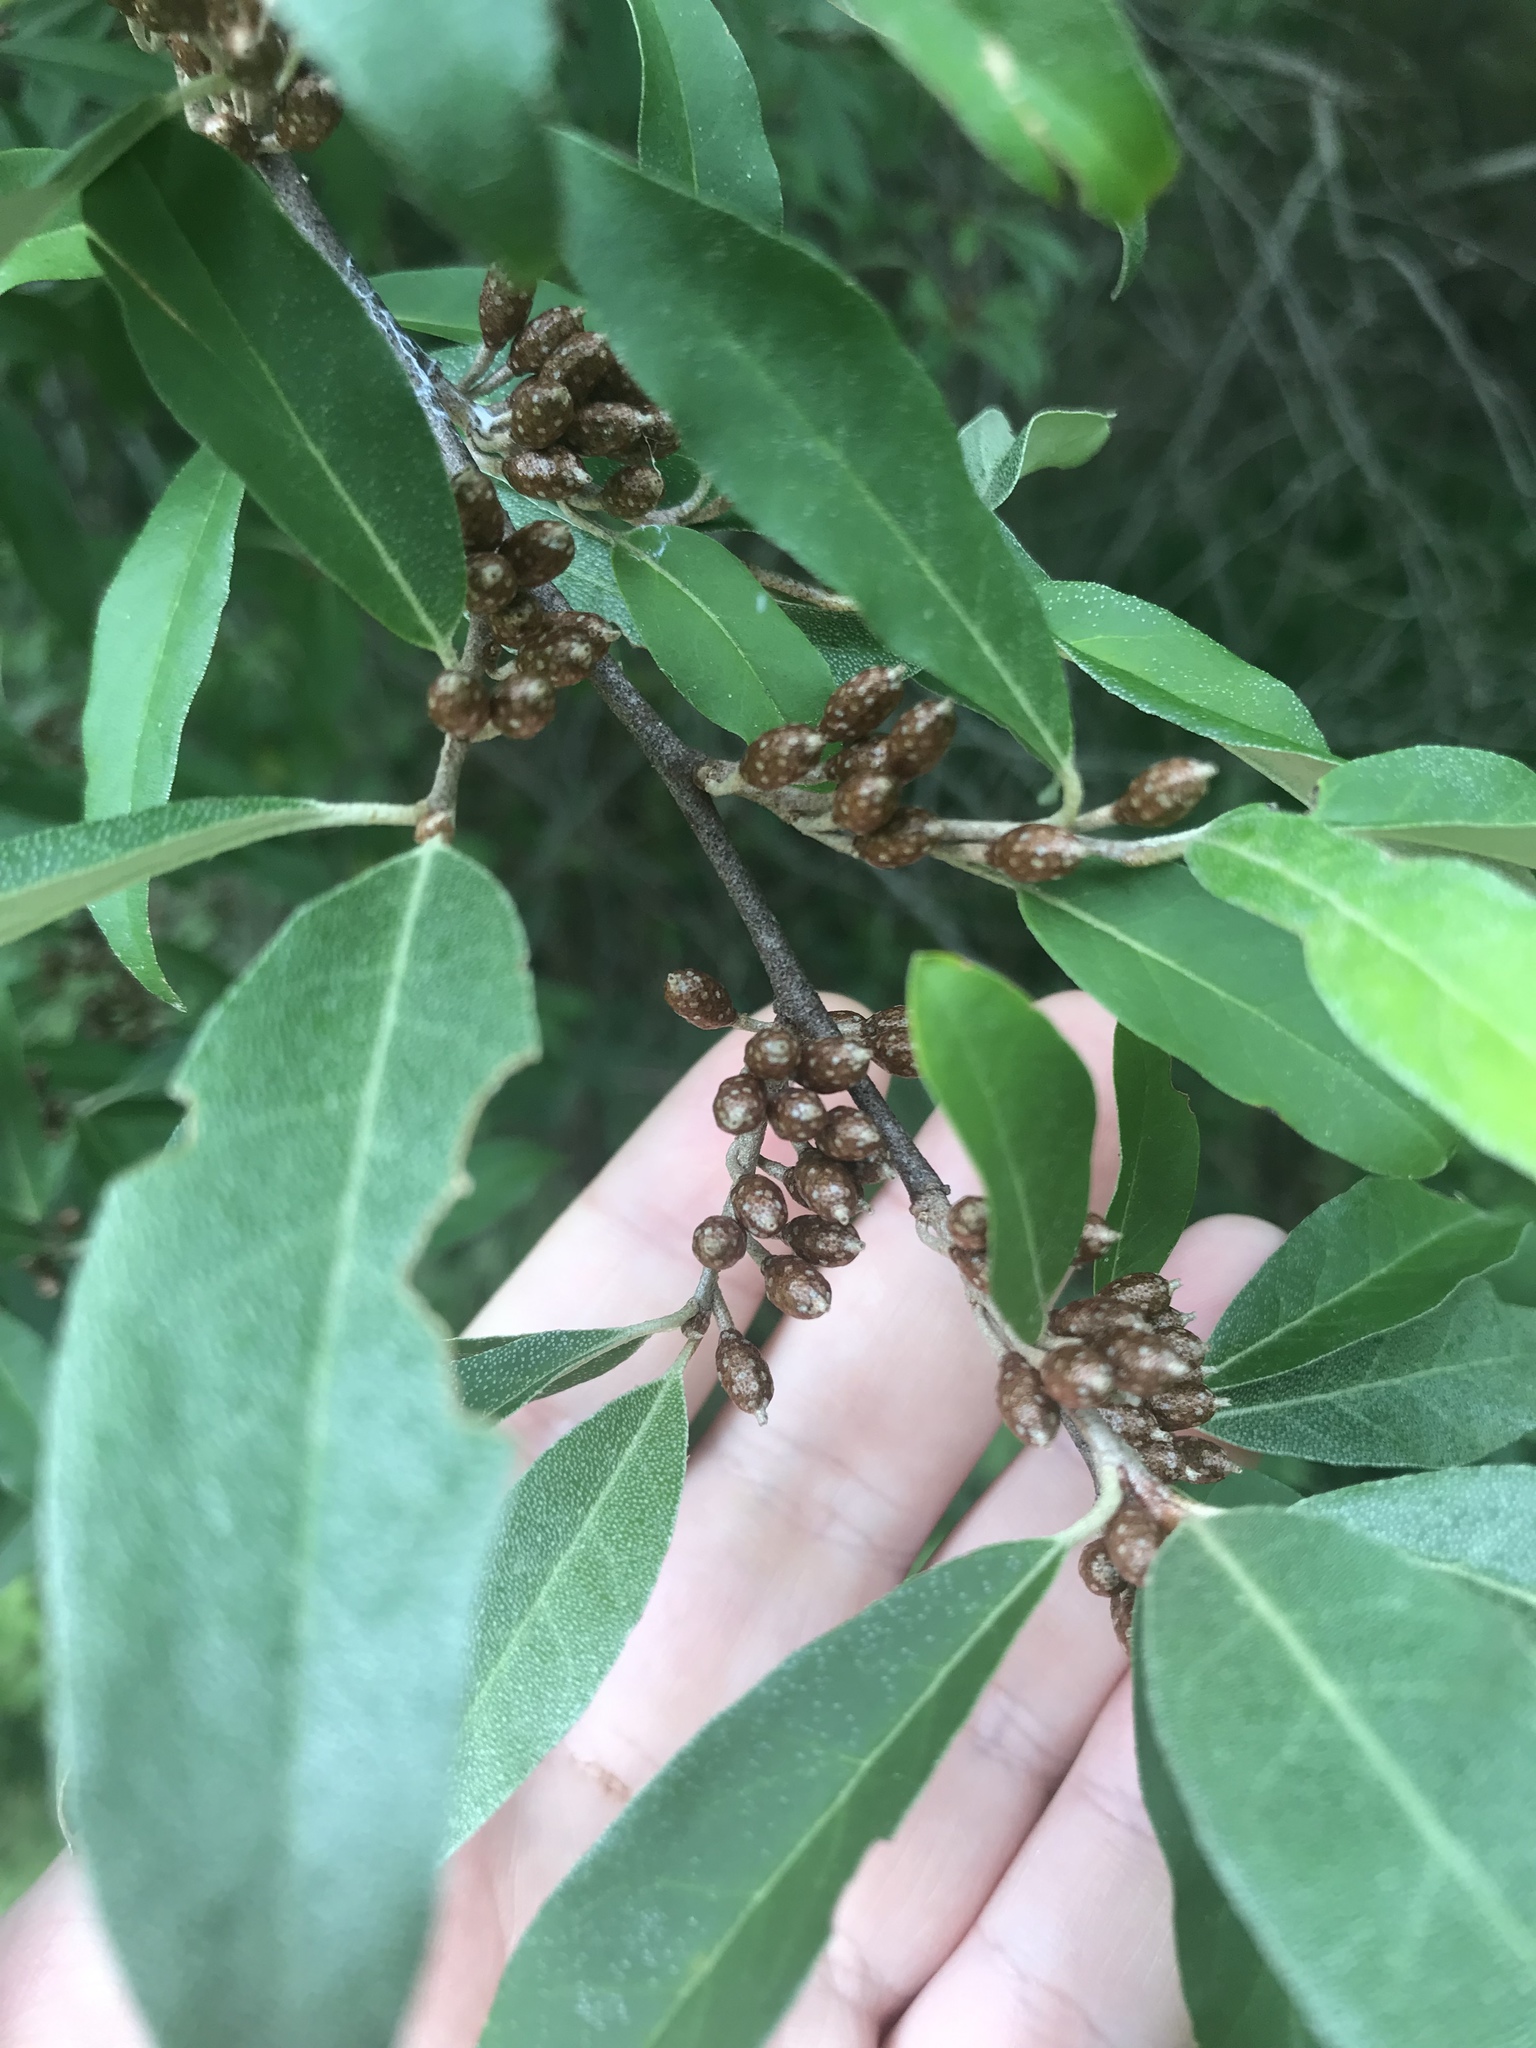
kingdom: Plantae
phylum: Tracheophyta
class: Magnoliopsida
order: Rosales
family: Elaeagnaceae
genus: Elaeagnus
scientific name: Elaeagnus umbellata
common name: Autumn olive
